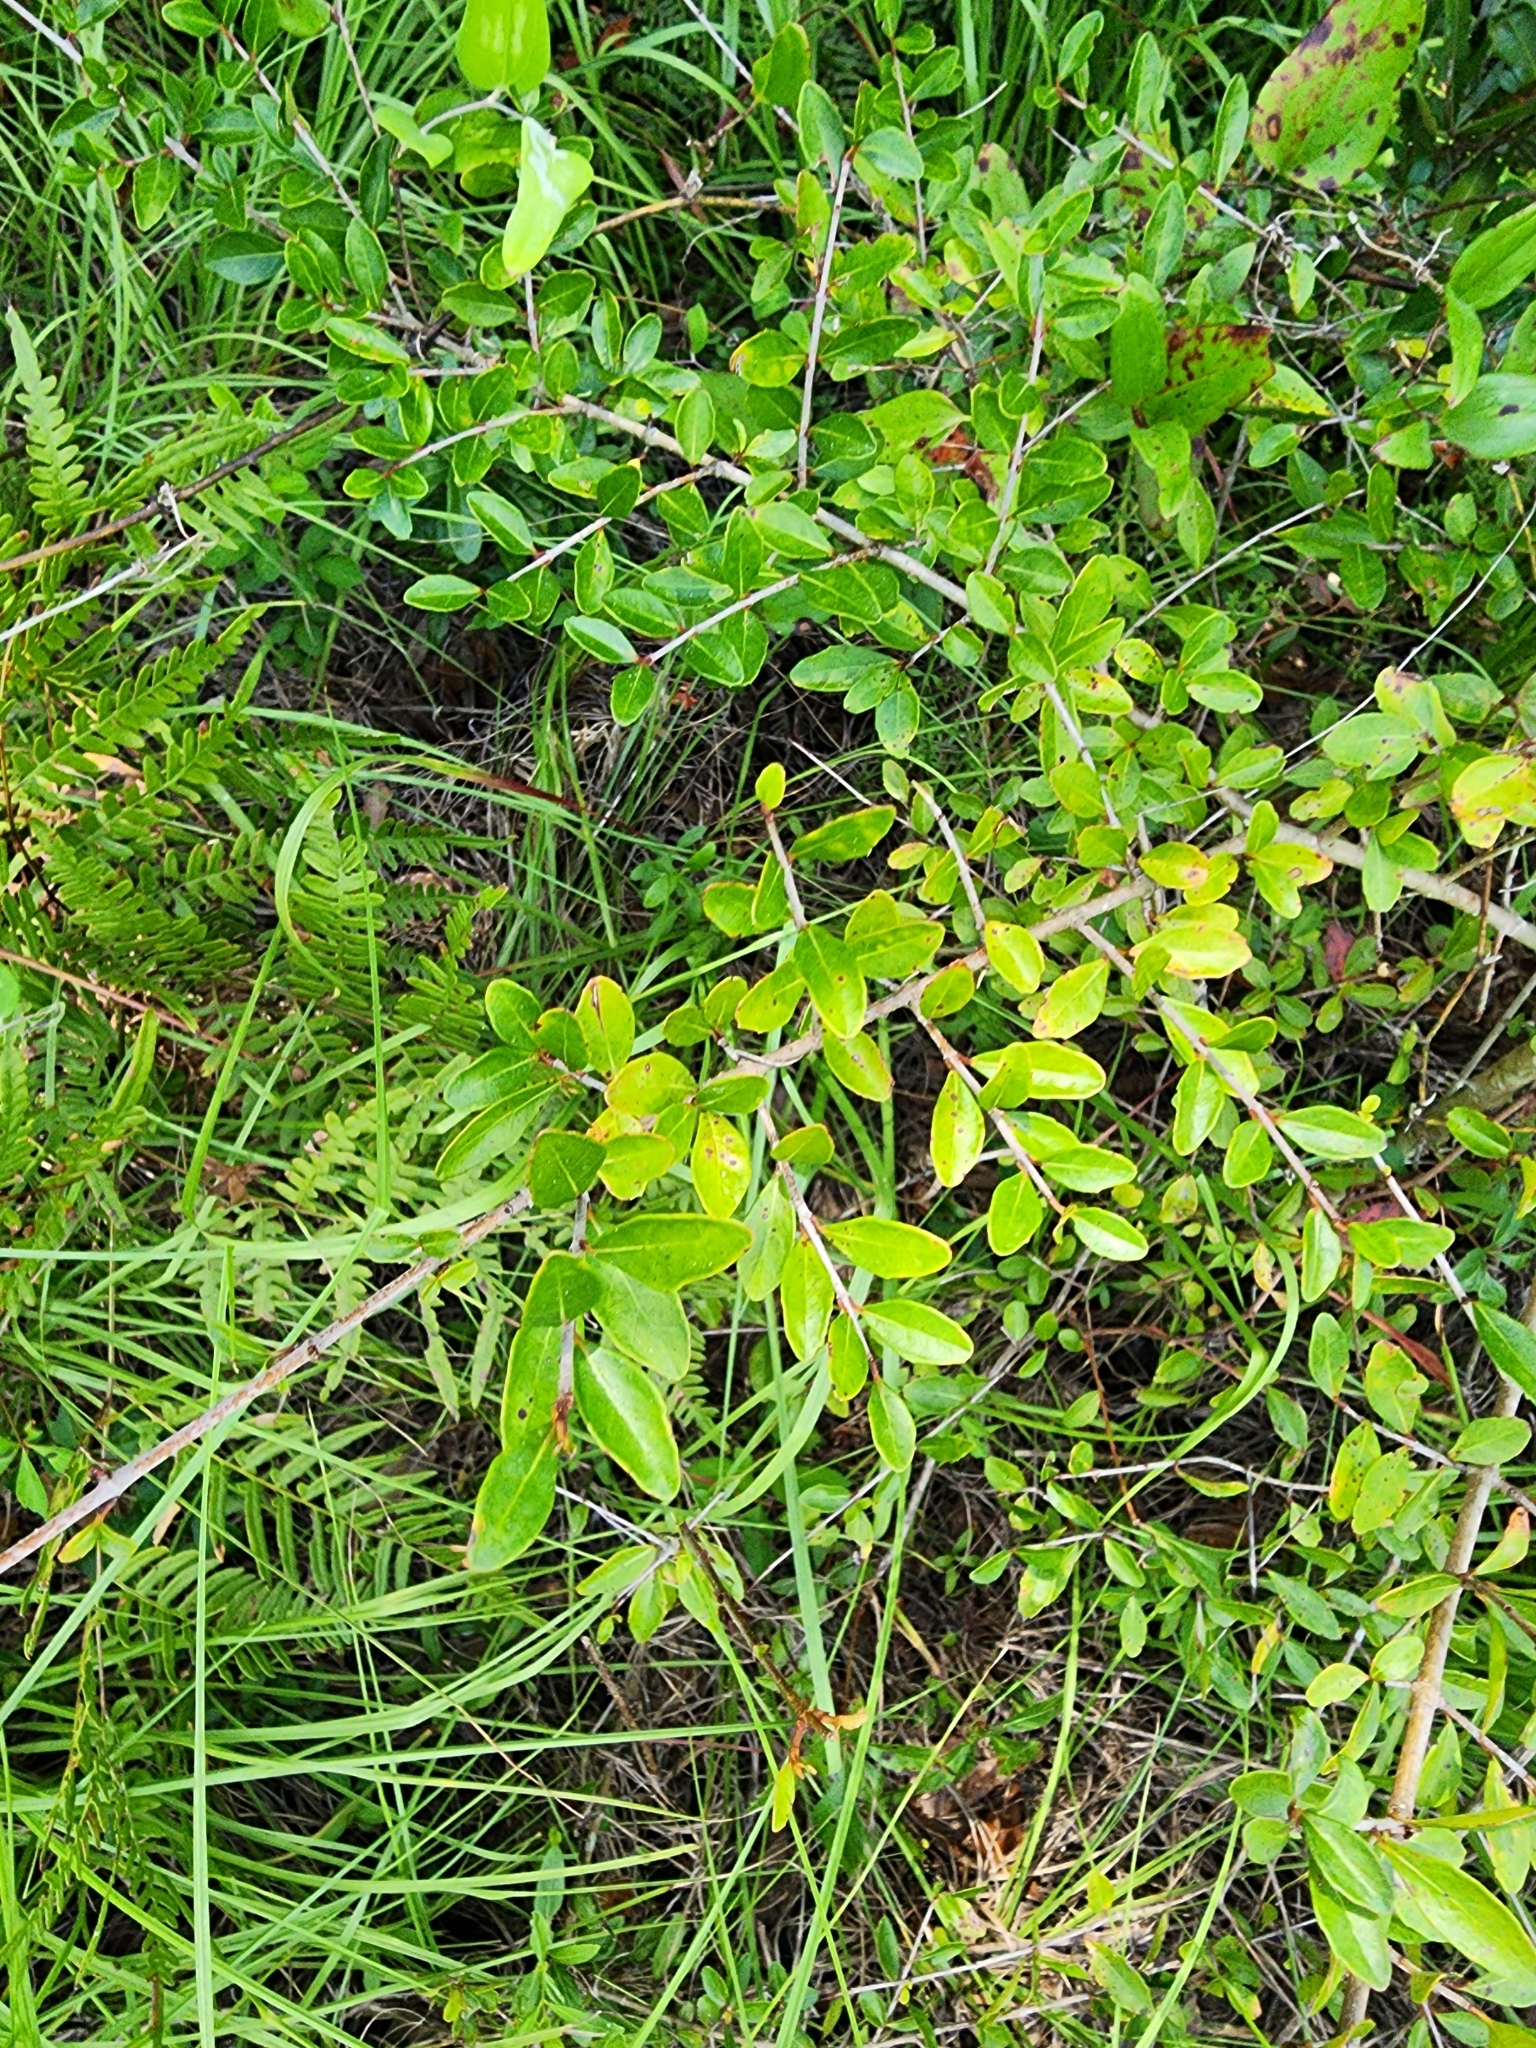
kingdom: Plantae
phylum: Tracheophyta
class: Magnoliopsida
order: Dipsacales
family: Viburnaceae
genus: Viburnum
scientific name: Viburnum obovatum
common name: Walter's viburnum
